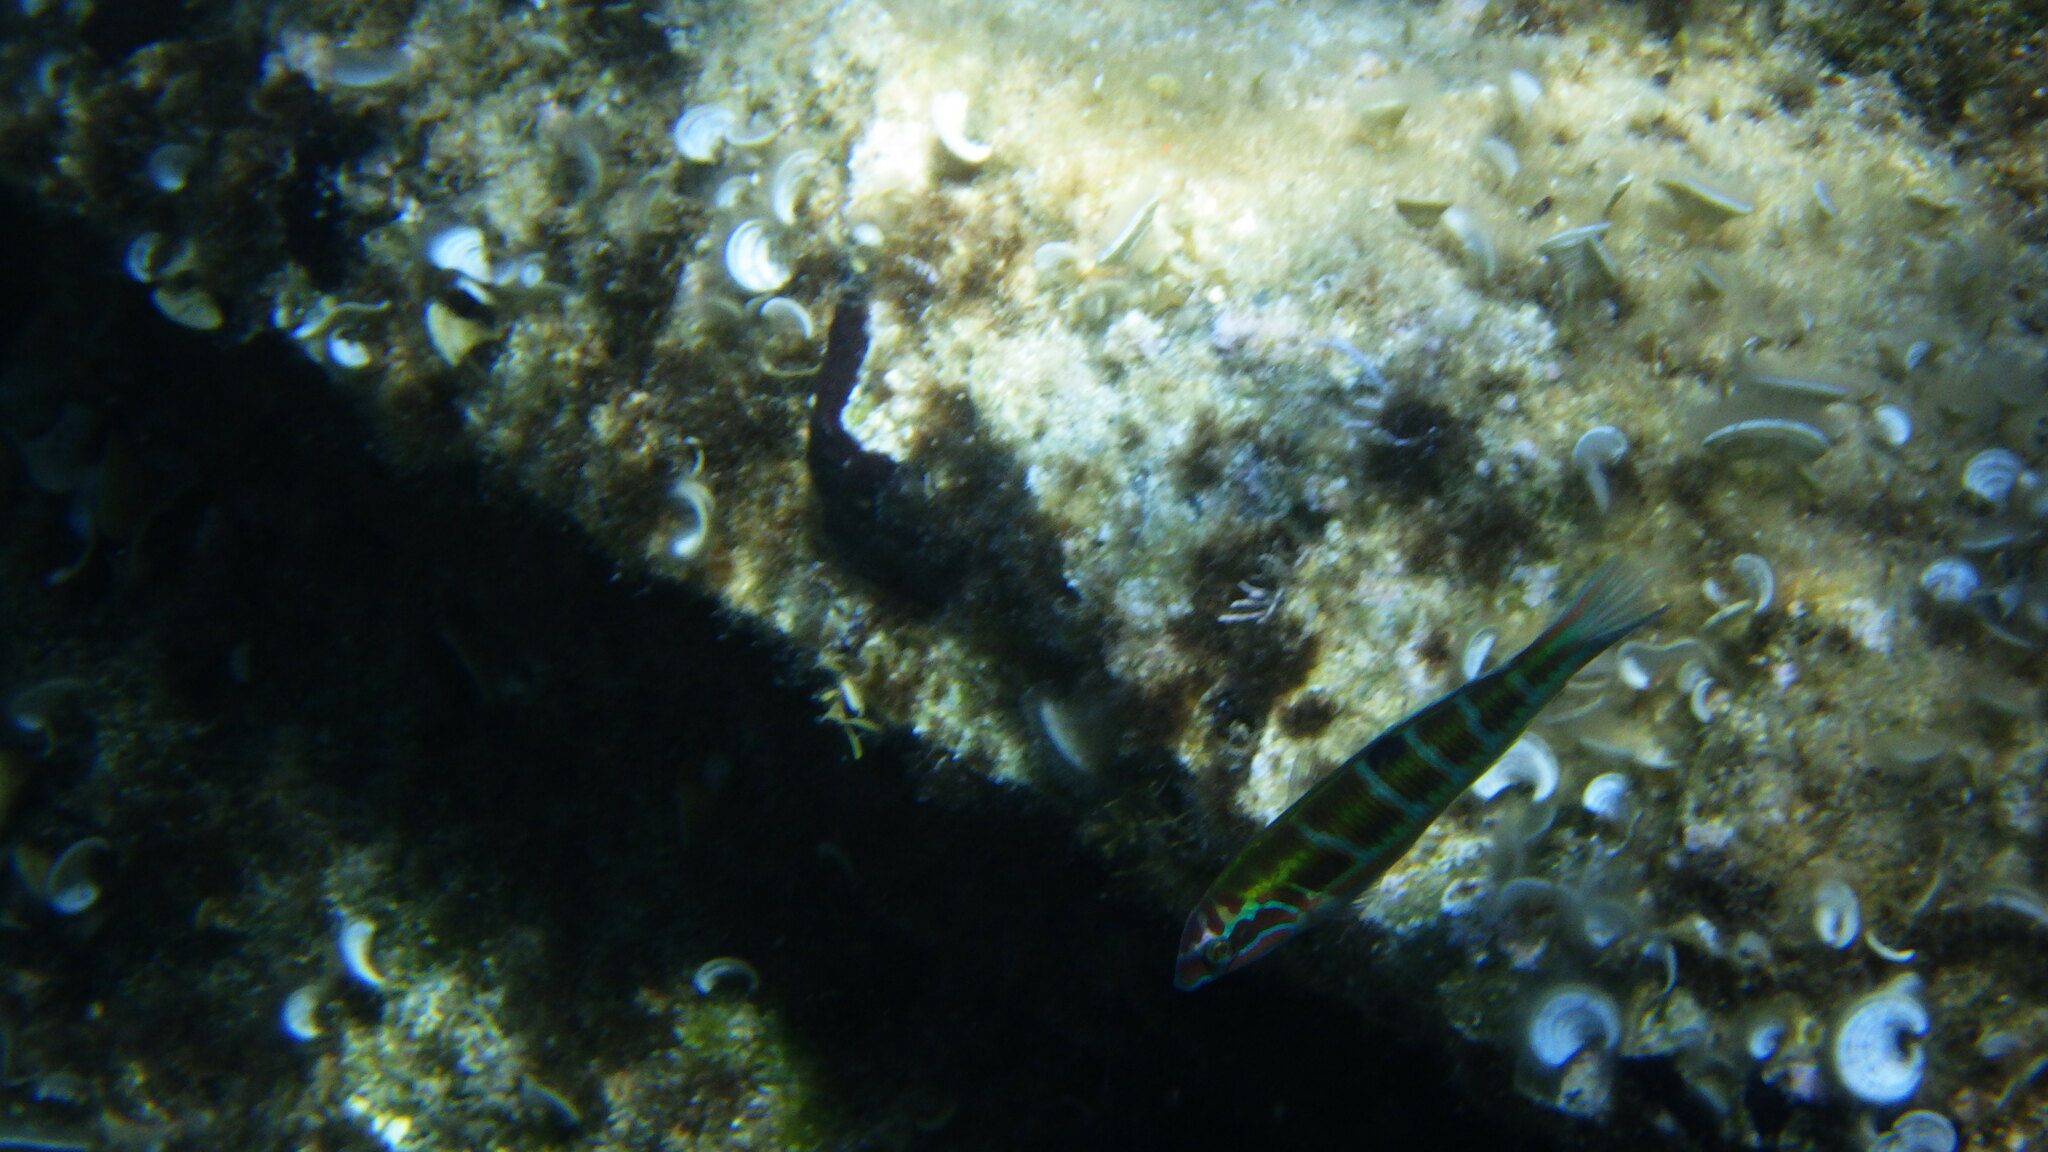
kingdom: Animalia
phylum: Chordata
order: Perciformes
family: Labridae
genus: Thalassoma
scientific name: Thalassoma pavo
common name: Ornate wrasse
